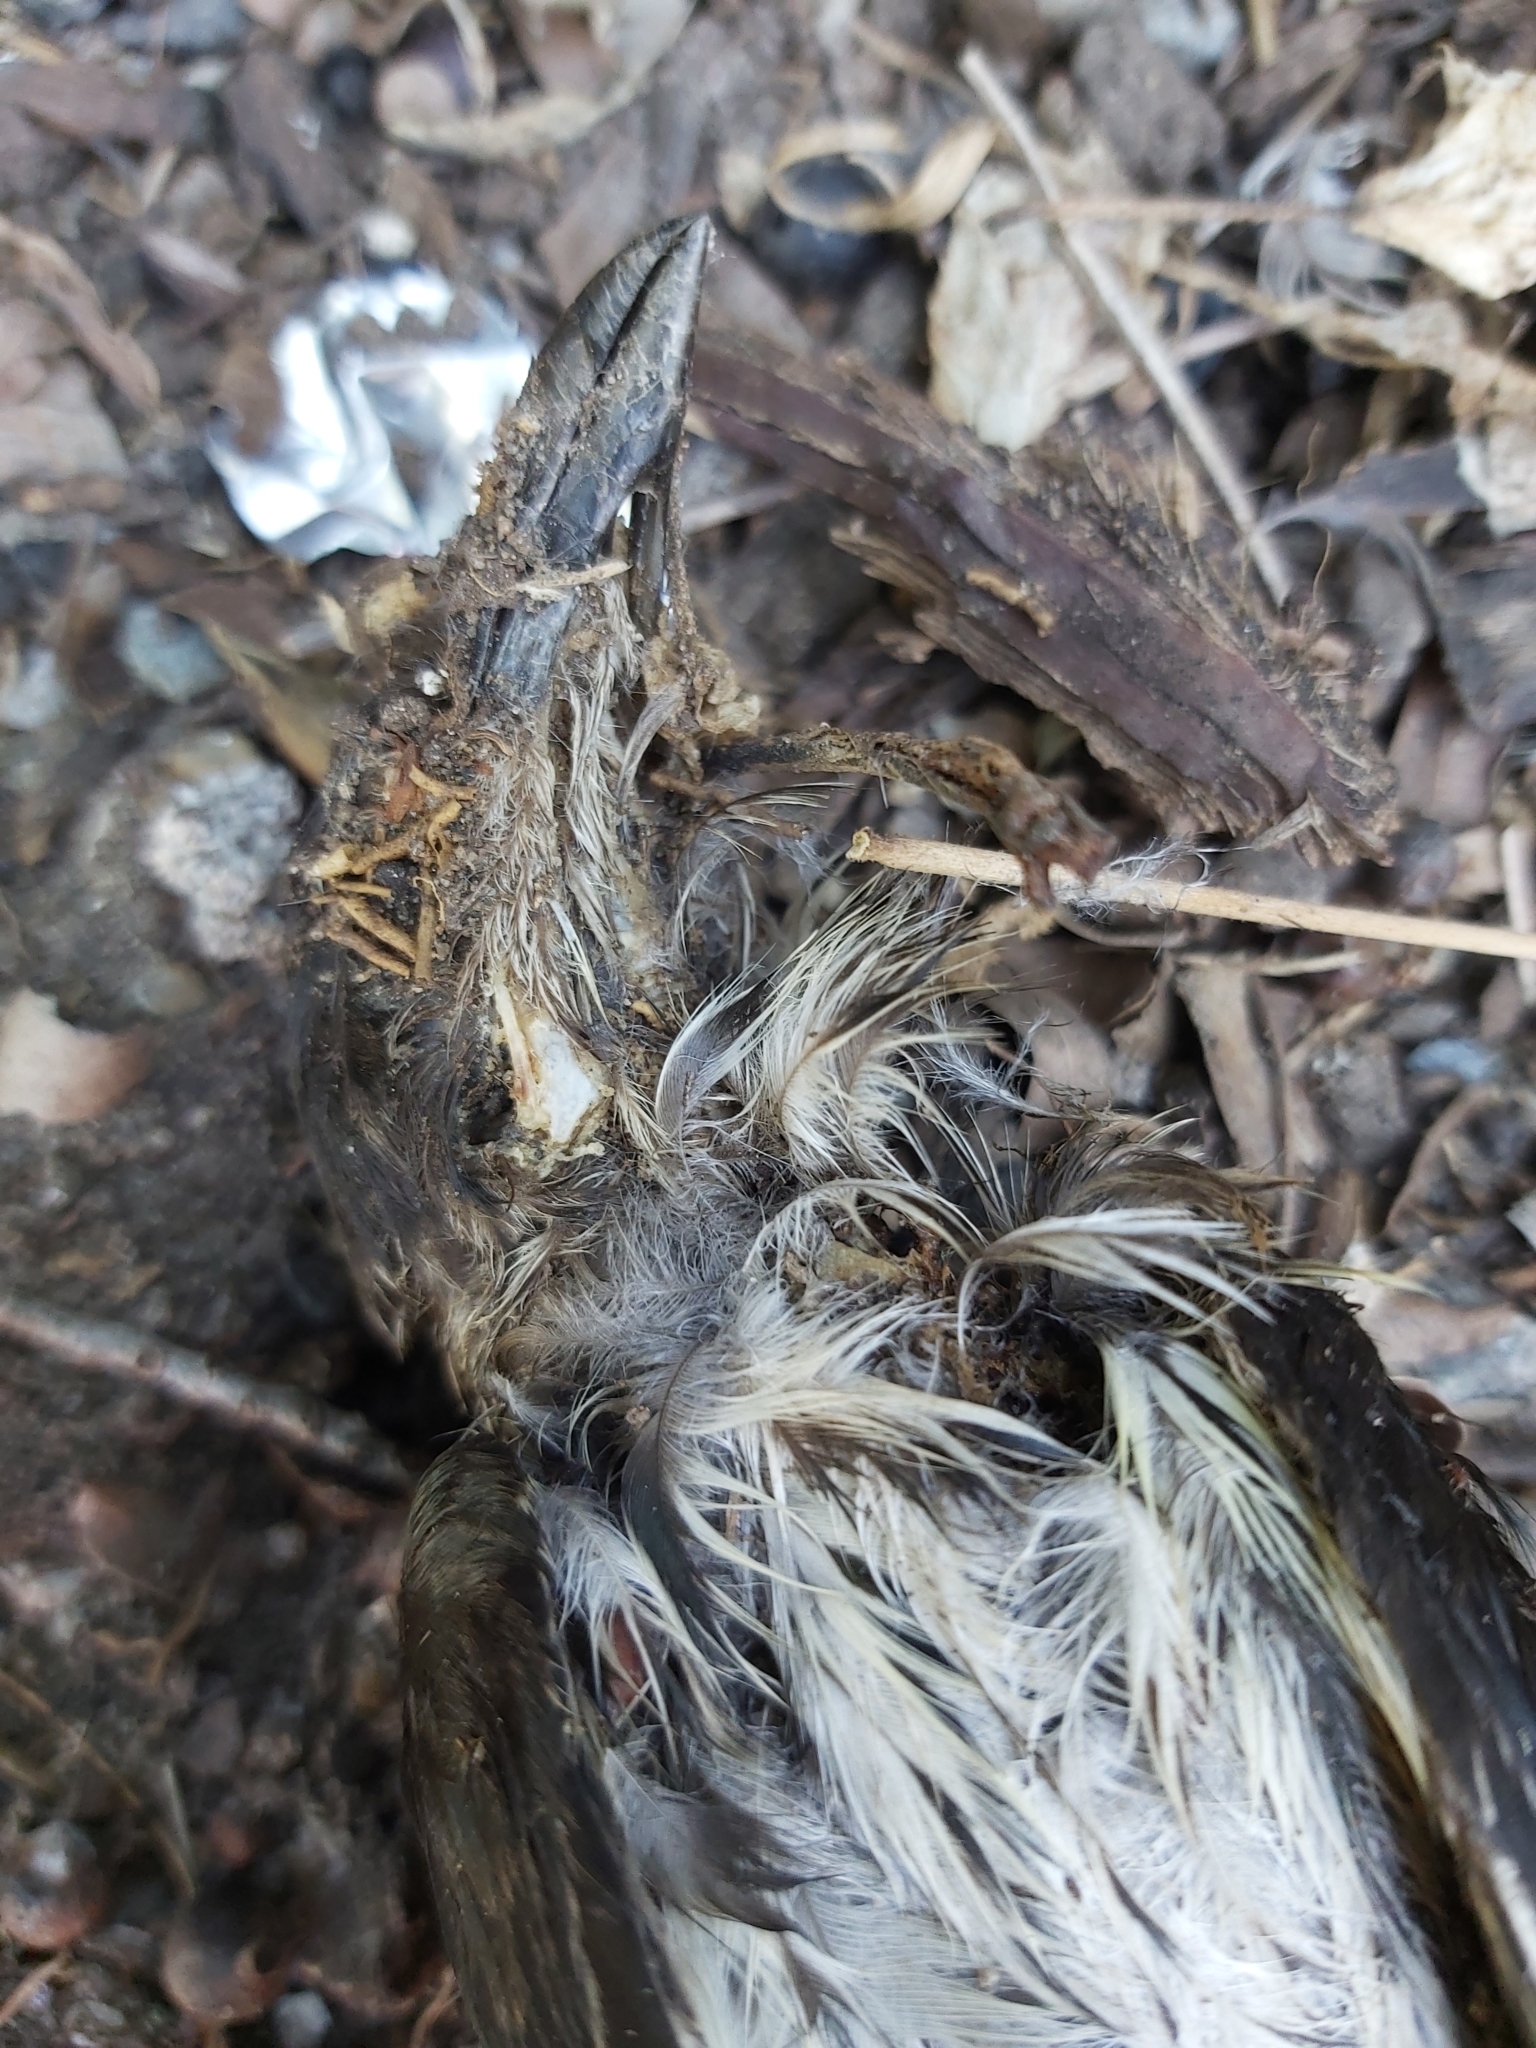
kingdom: Animalia
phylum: Chordata
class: Aves
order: Passeriformes
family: Sturnidae
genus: Aplonis
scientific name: Aplonis metallica
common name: Metallic starling
